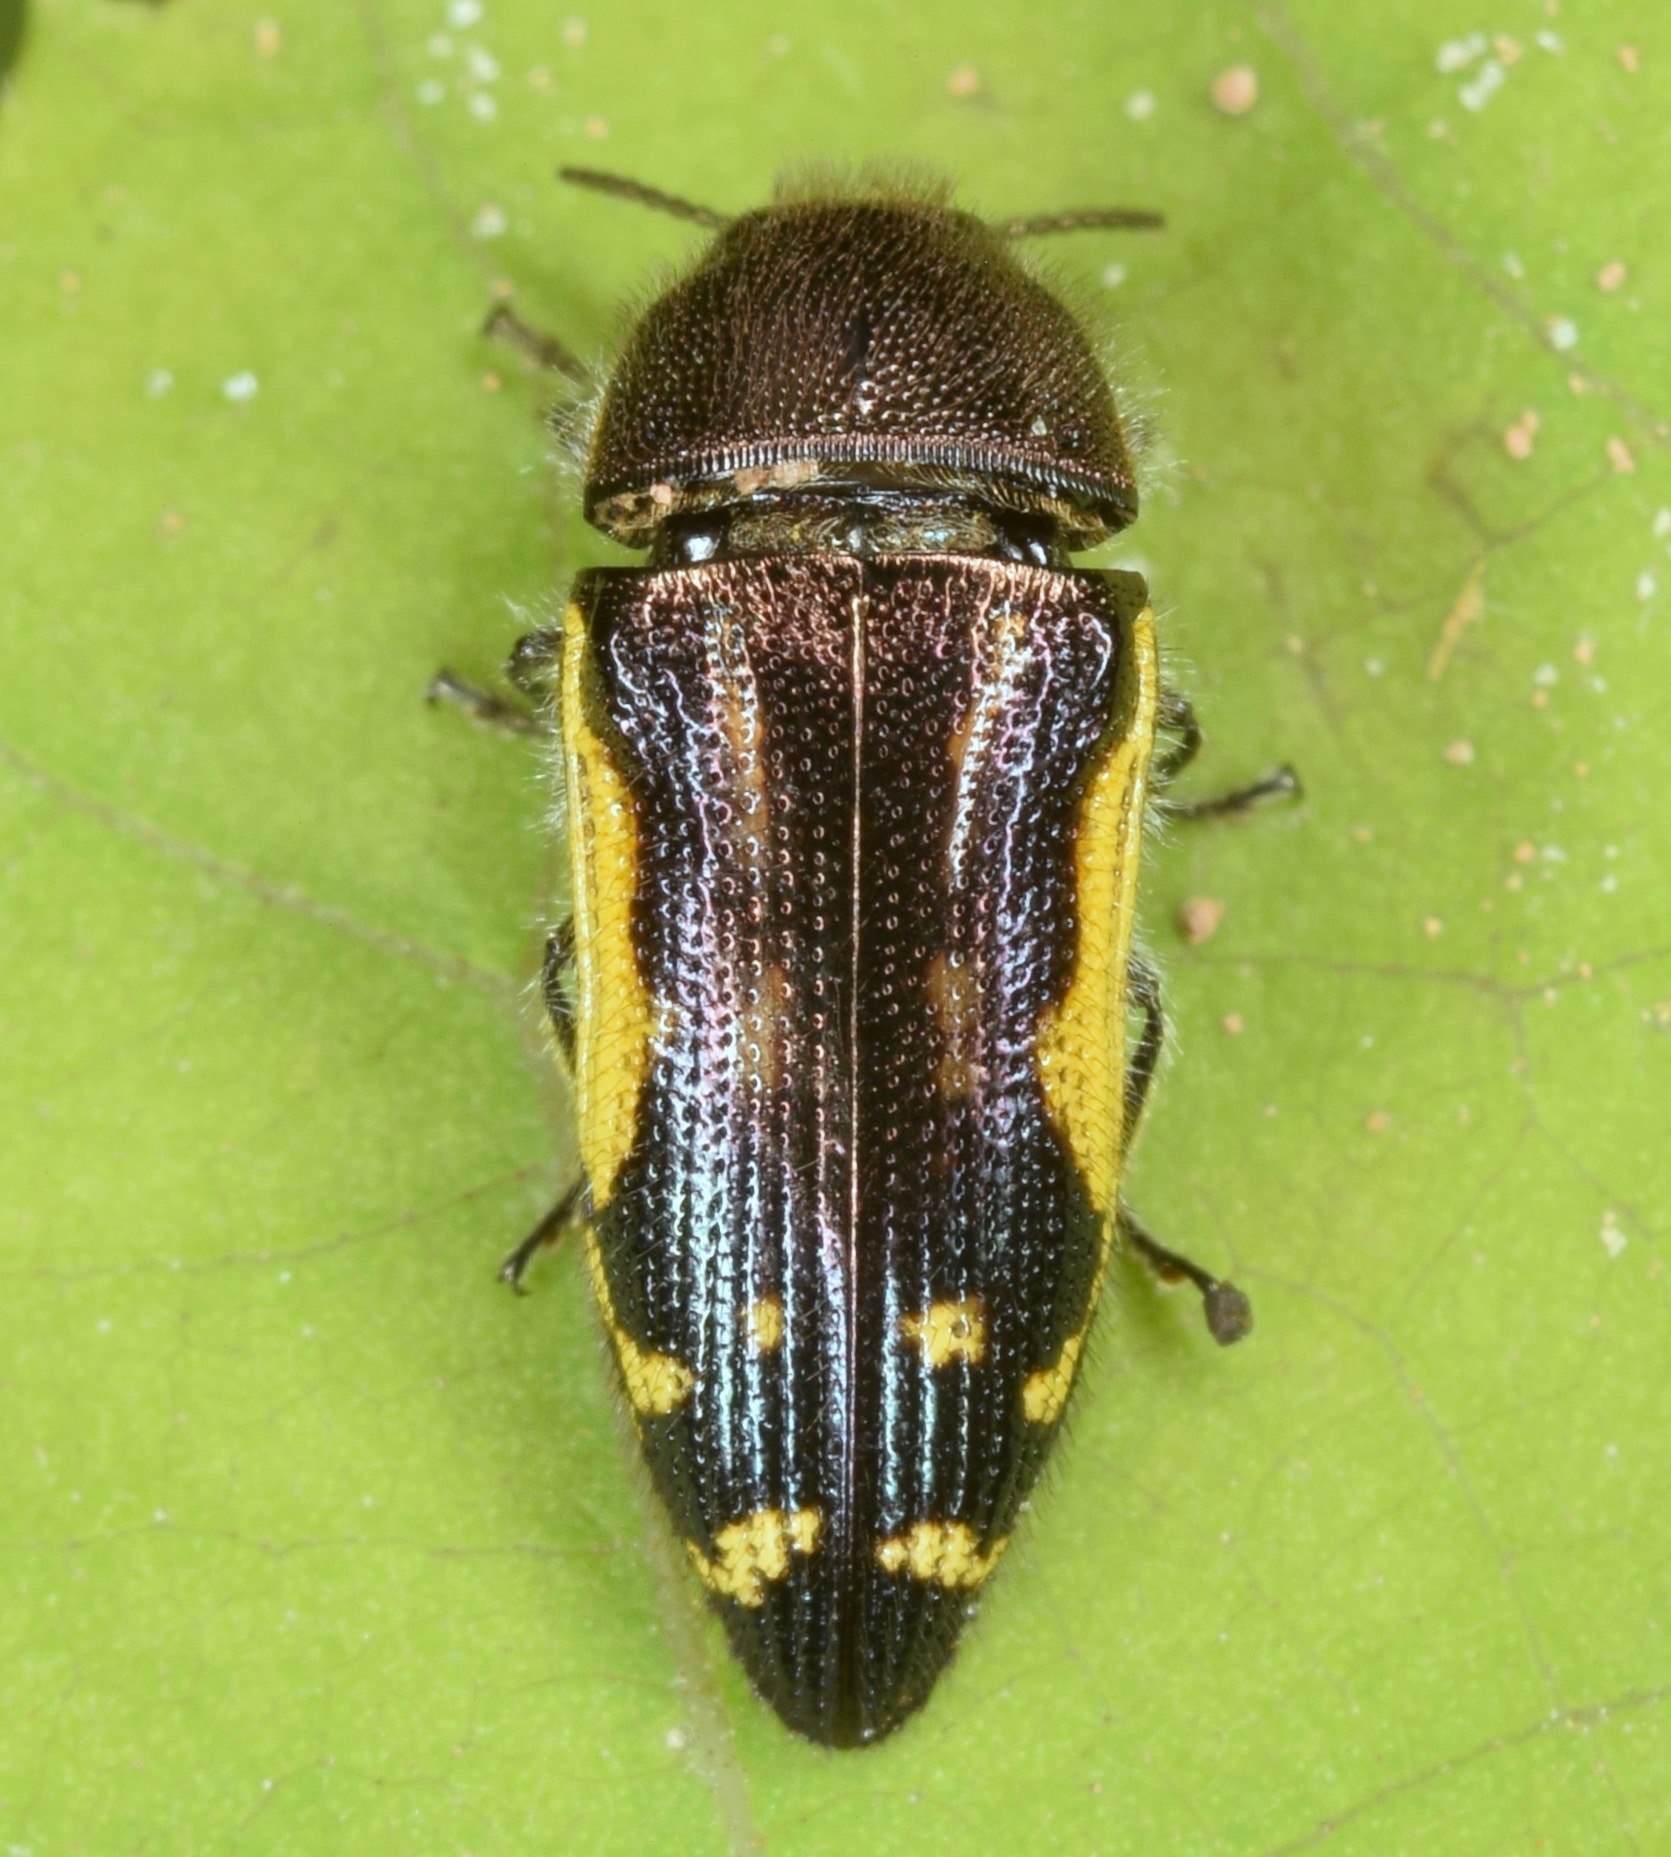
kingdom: Animalia
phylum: Arthropoda
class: Insecta
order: Coleoptera
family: Buprestidae
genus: Acmaeodera
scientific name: Acmaeodera pulchella
